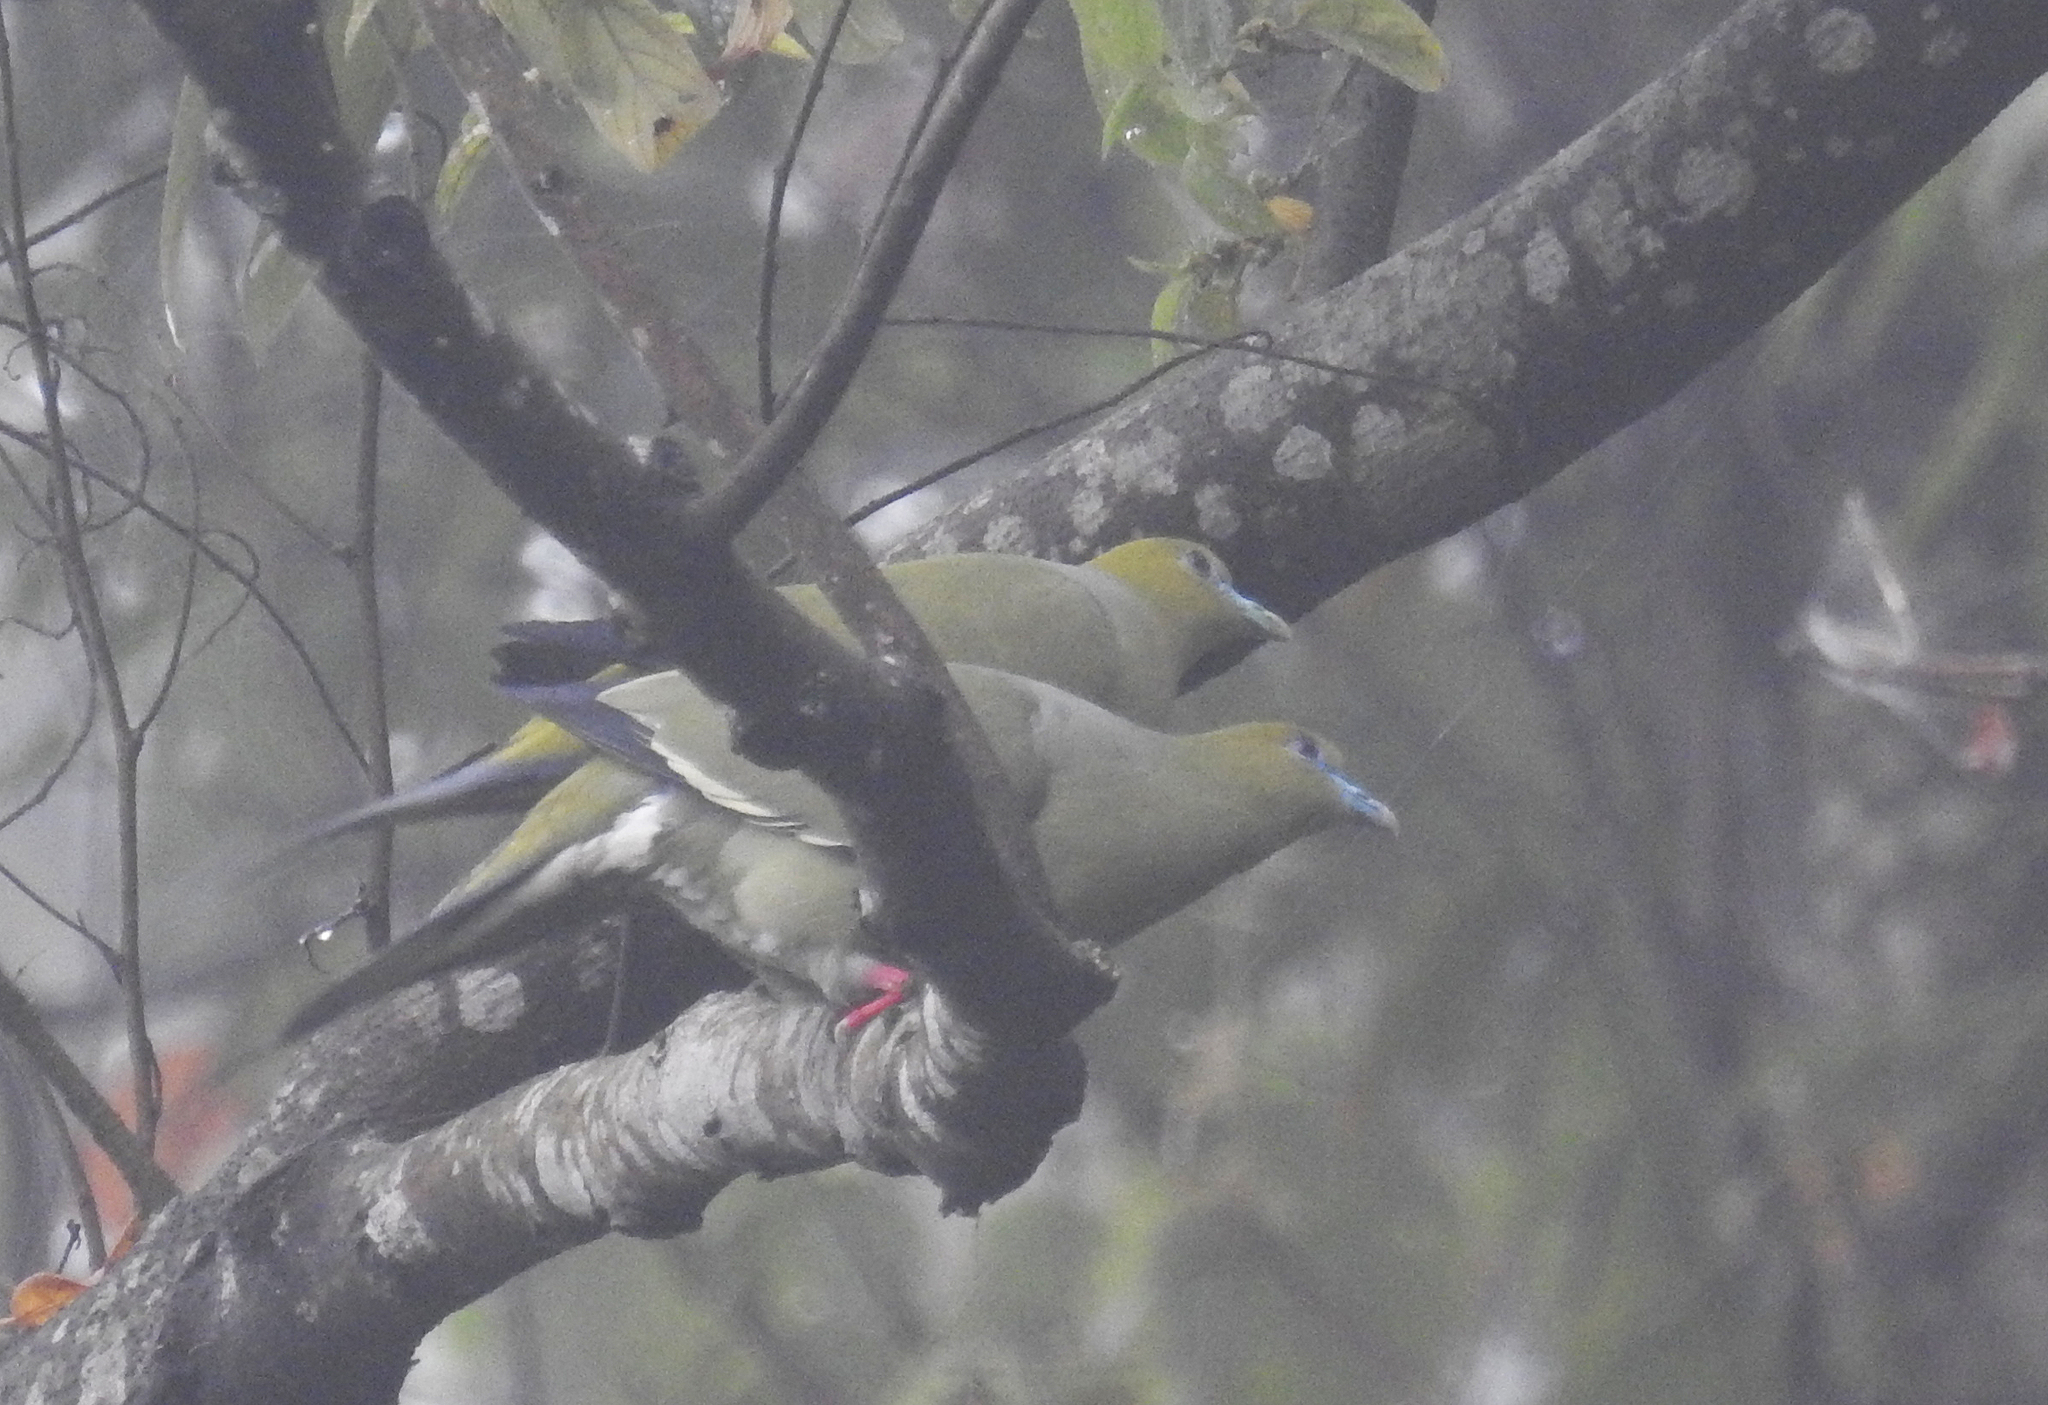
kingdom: Animalia
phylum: Chordata
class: Aves
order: Columbiformes
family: Columbidae
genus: Treron
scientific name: Treron apicauda
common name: Pin-tailed green pigeon
